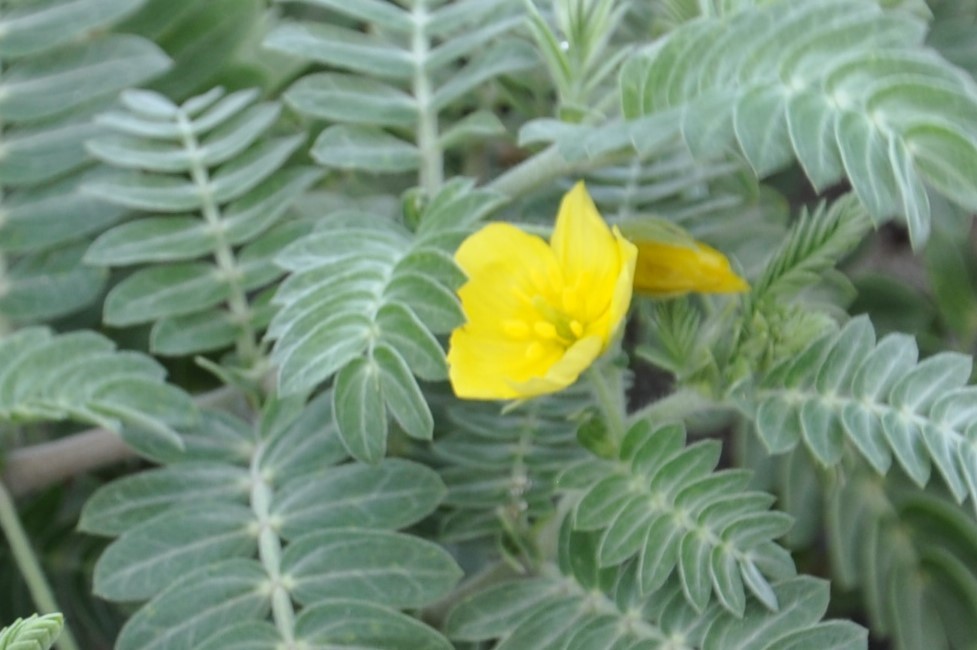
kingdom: Plantae
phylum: Tracheophyta
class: Magnoliopsida
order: Zygophyllales
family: Zygophyllaceae
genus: Tribulus
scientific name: Tribulus cistoides
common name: Jamaican feverplant
